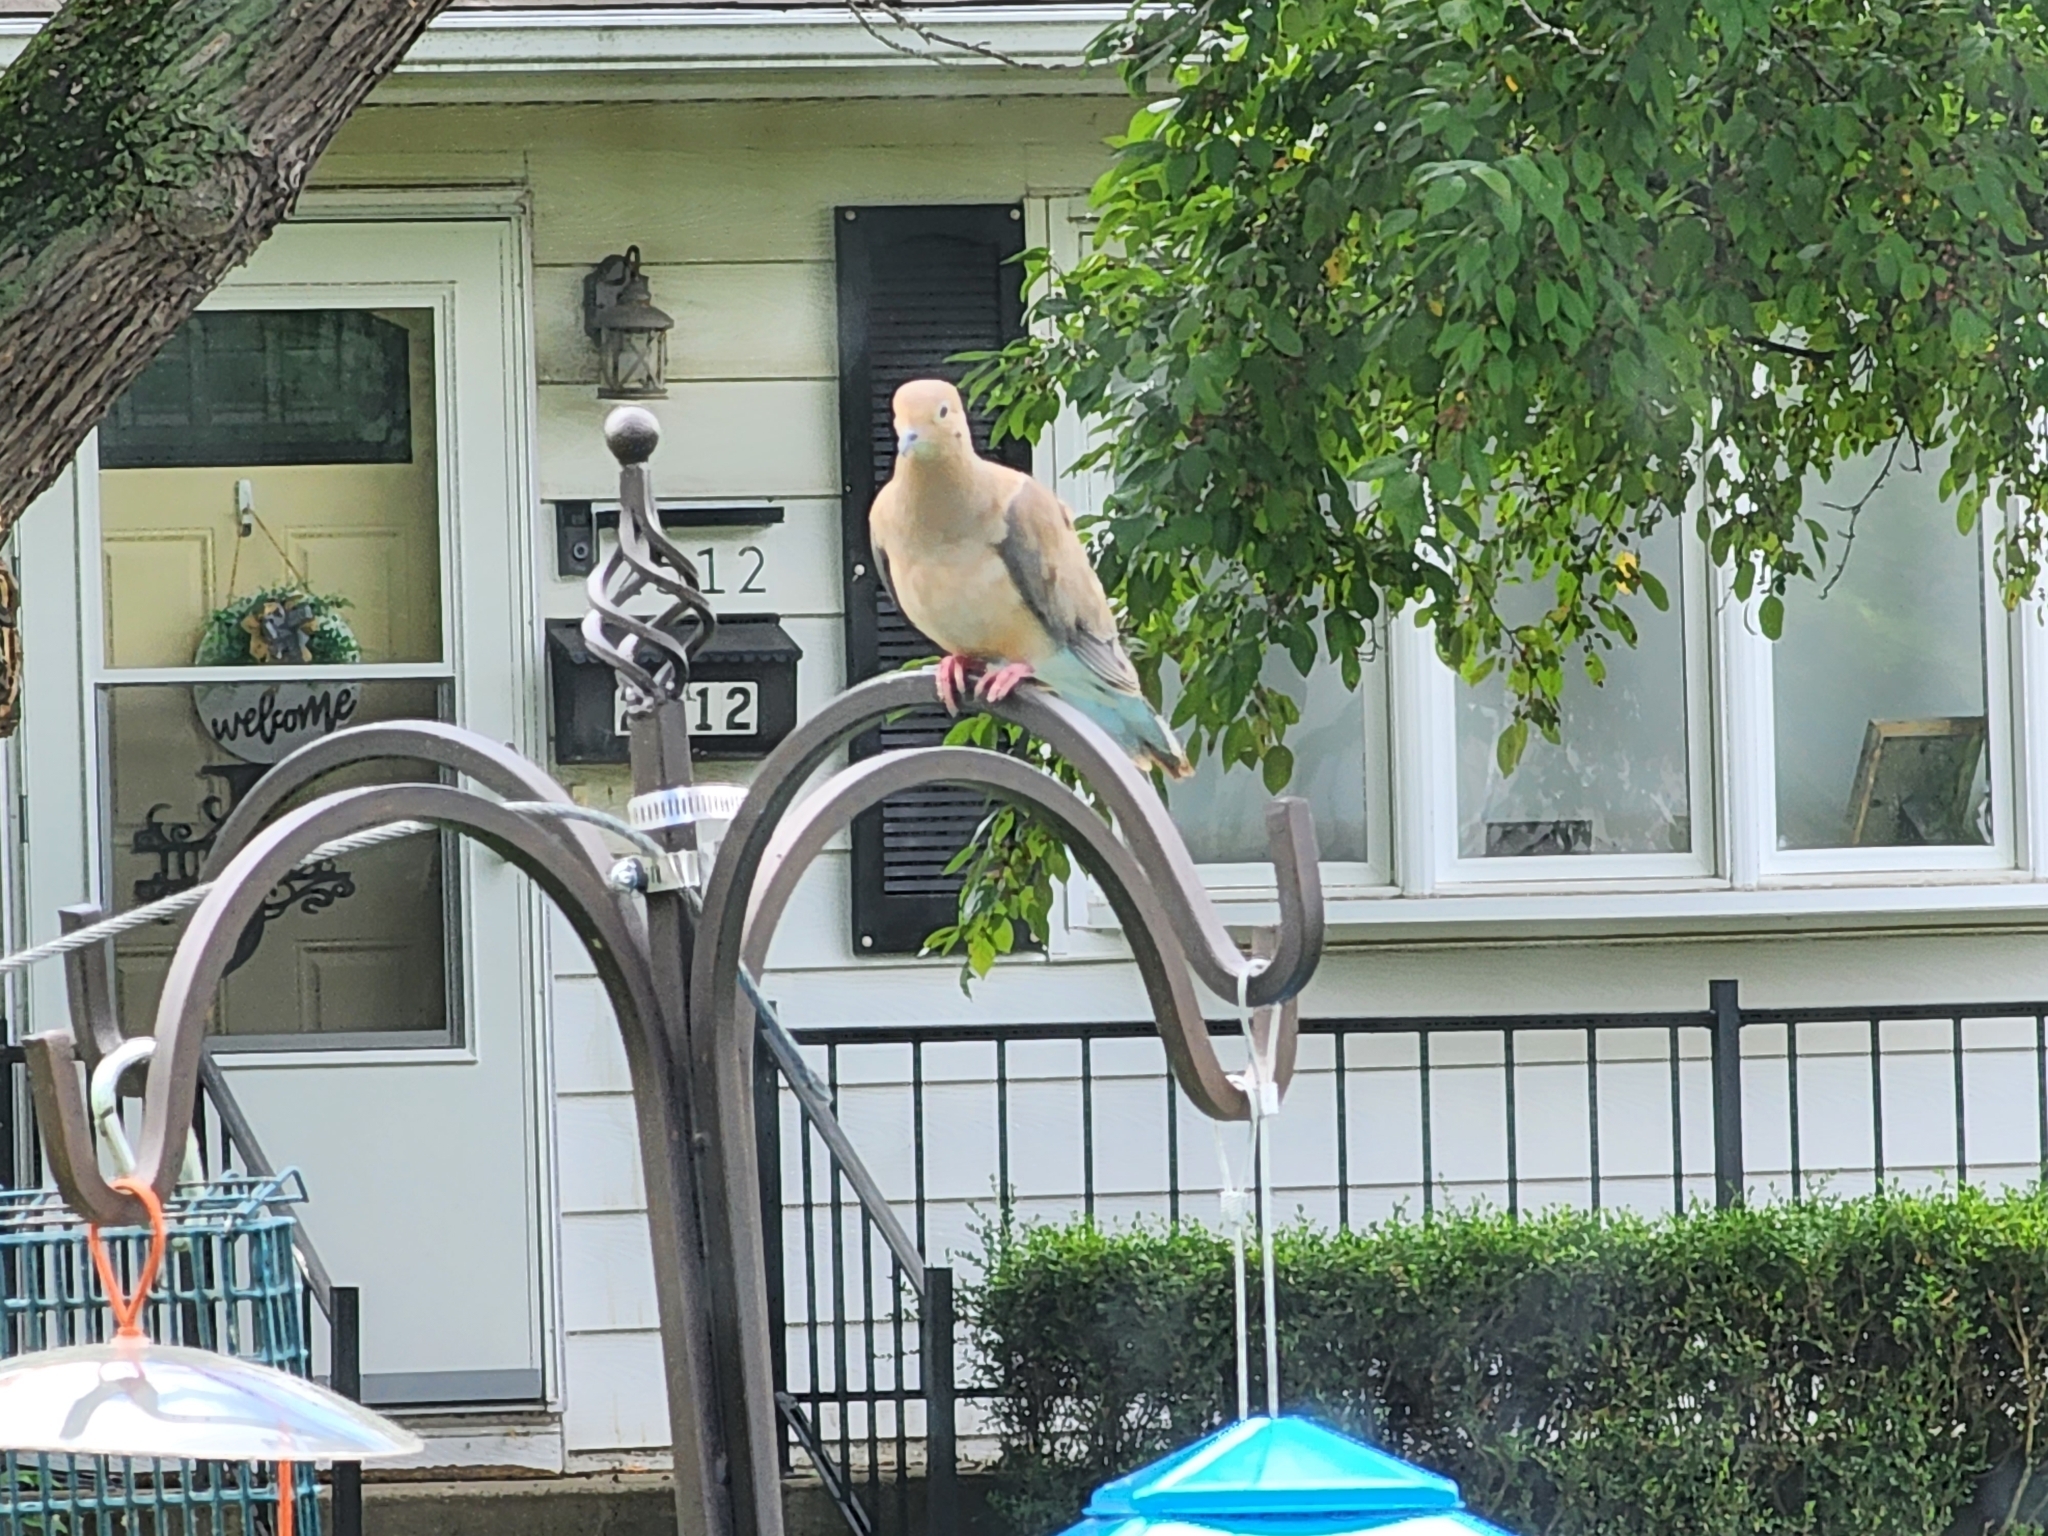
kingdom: Animalia
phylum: Chordata
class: Aves
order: Columbiformes
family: Columbidae
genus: Zenaida
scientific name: Zenaida macroura
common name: Mourning dove
